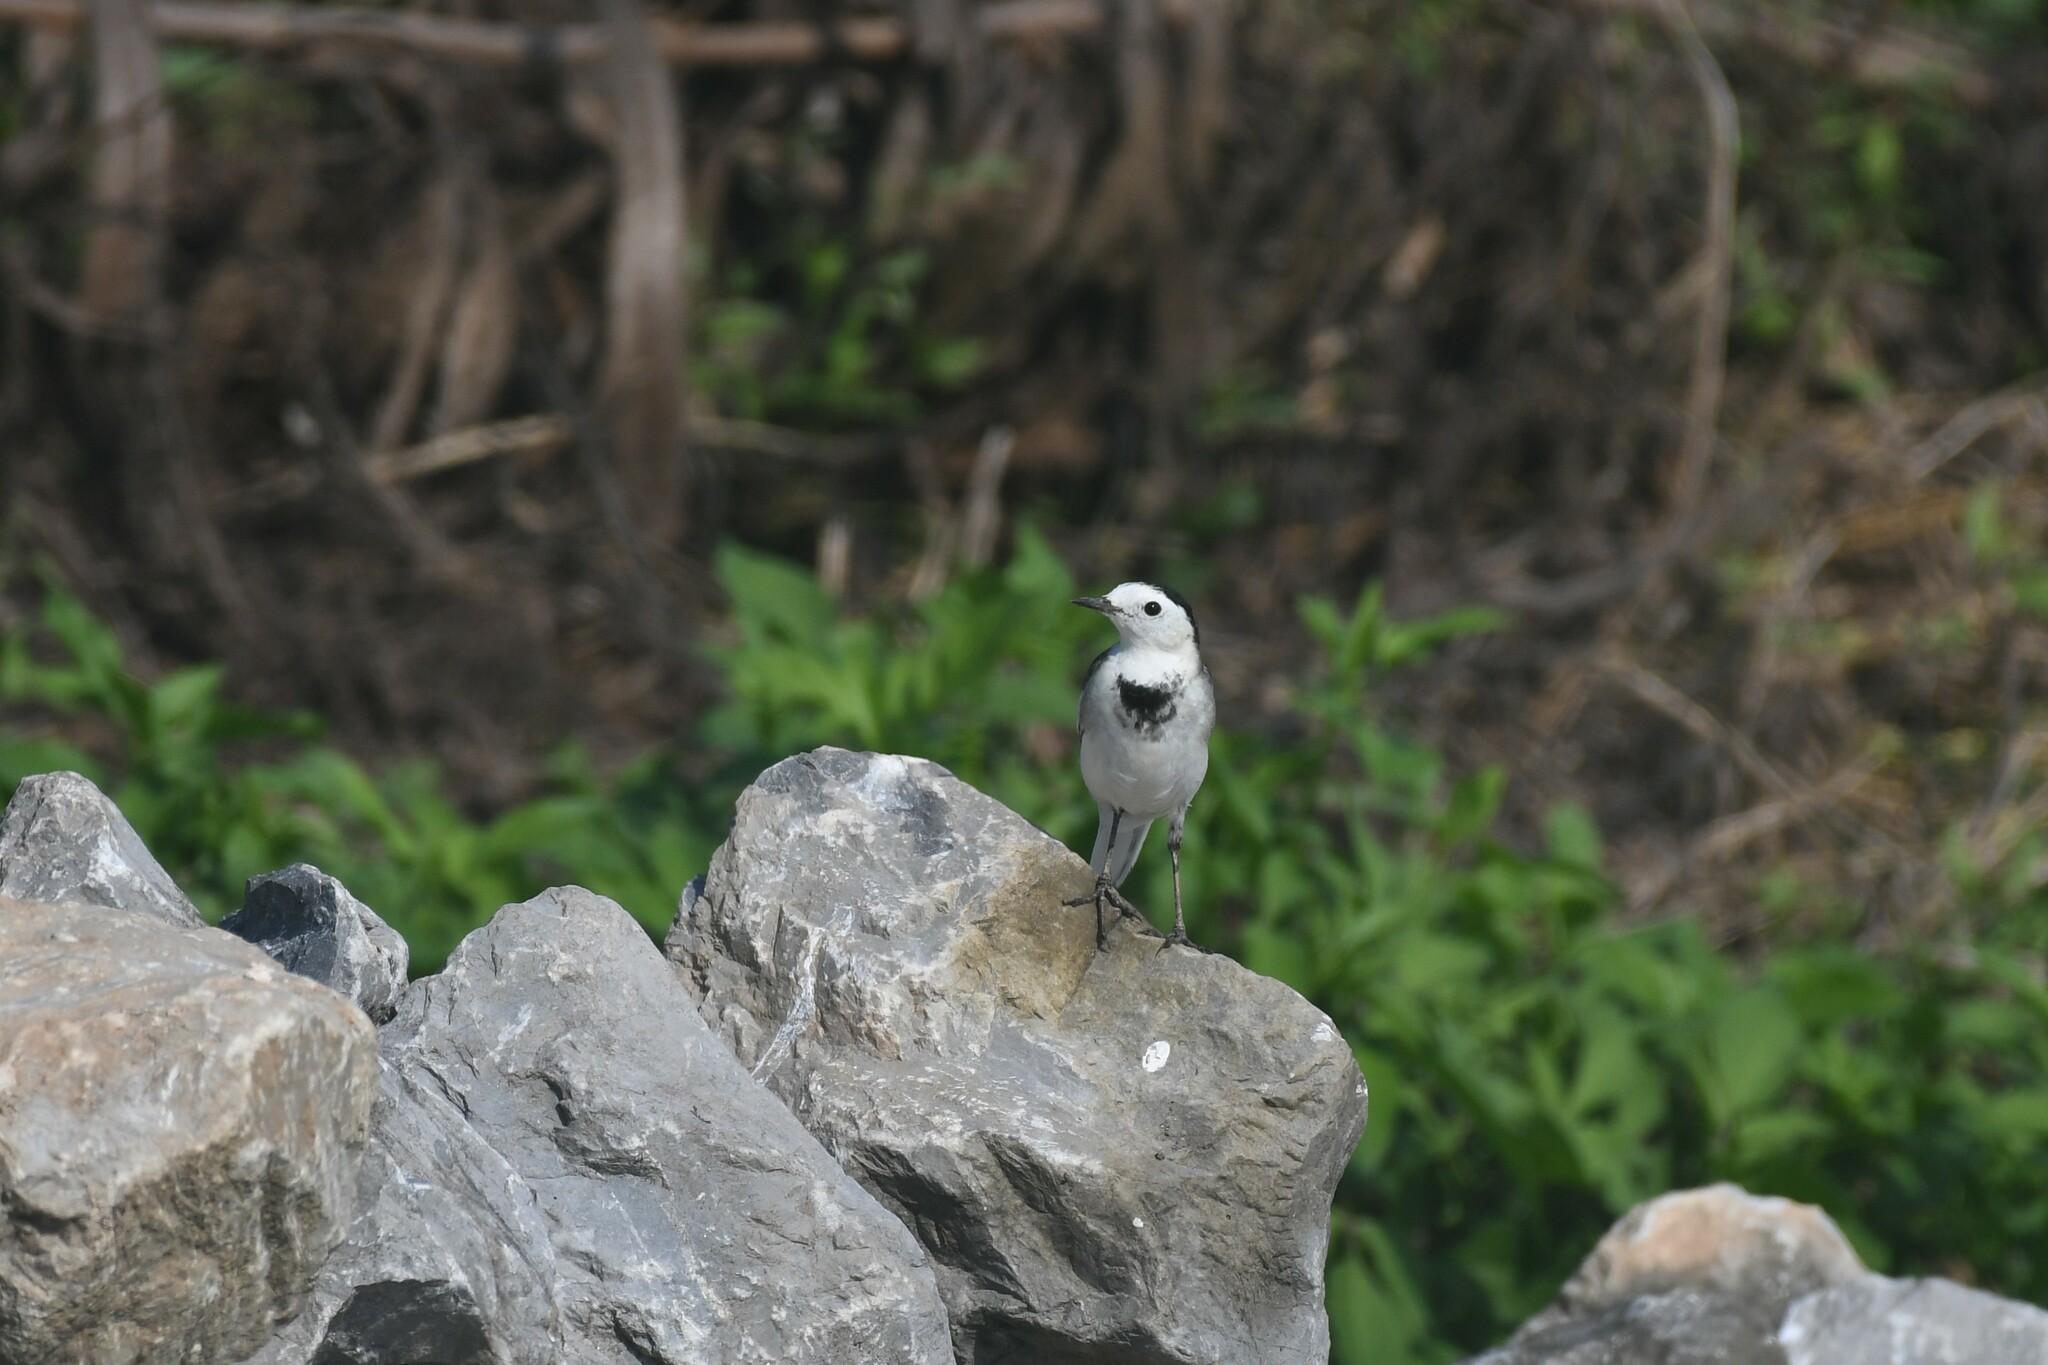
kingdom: Animalia
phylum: Chordata
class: Aves
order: Passeriformes
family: Motacillidae
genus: Motacilla
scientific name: Motacilla alba
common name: White wagtail
